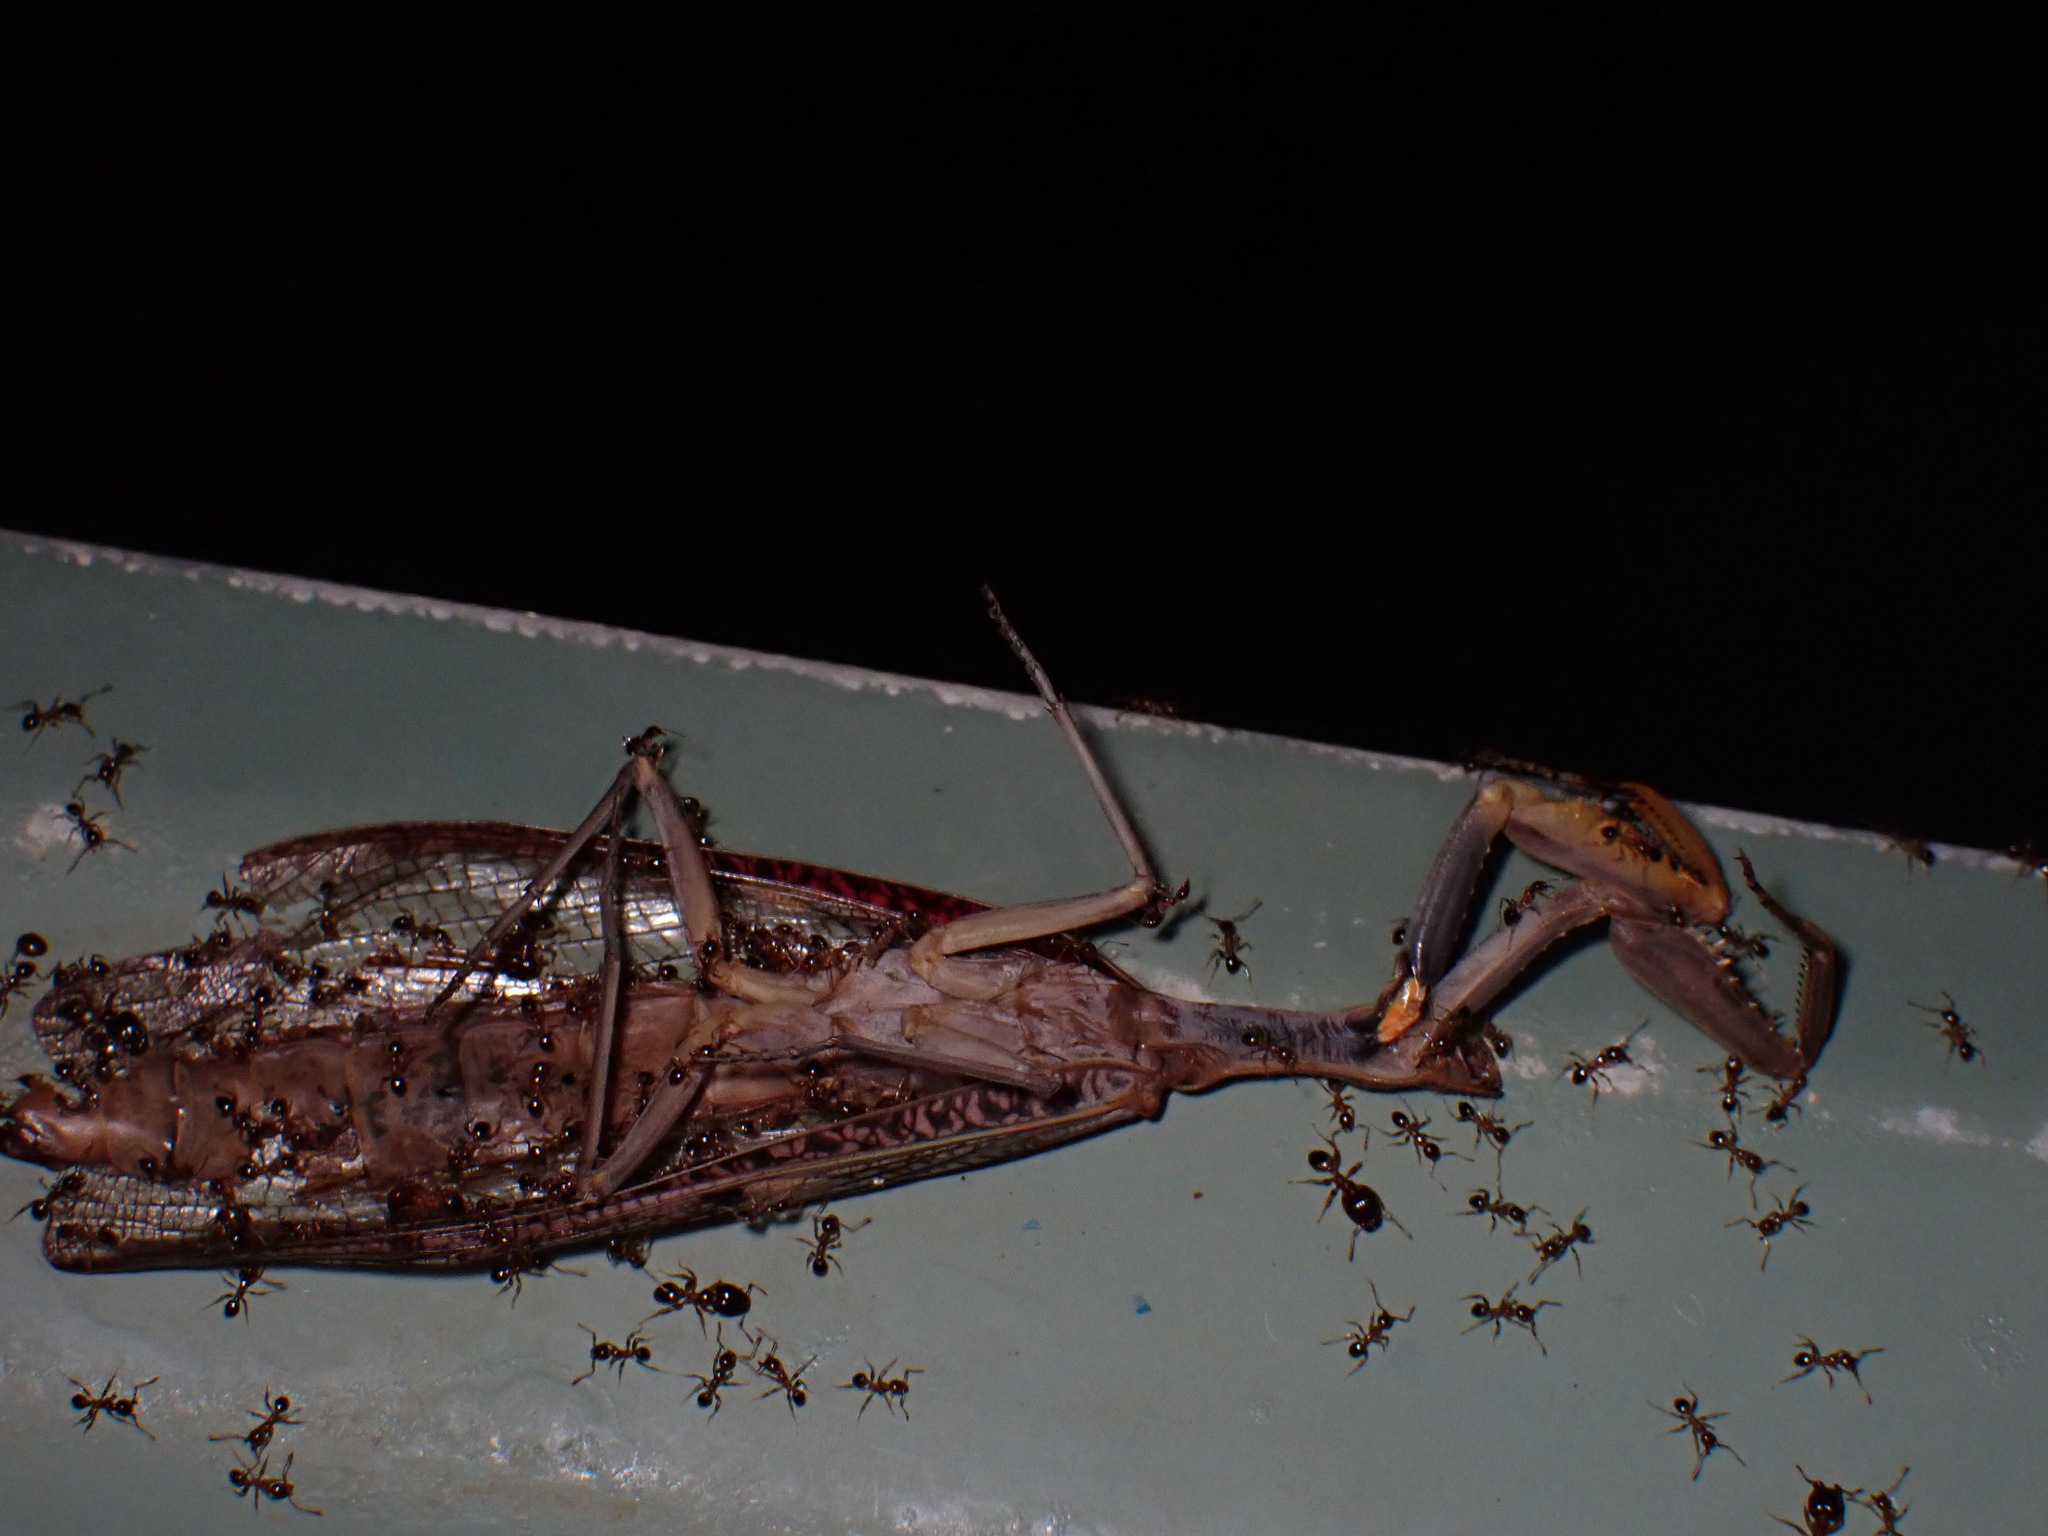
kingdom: Animalia
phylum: Arthropoda
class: Insecta
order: Mantodea
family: Mantidae
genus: Sphodropoda
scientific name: Sphodropoda tristis
